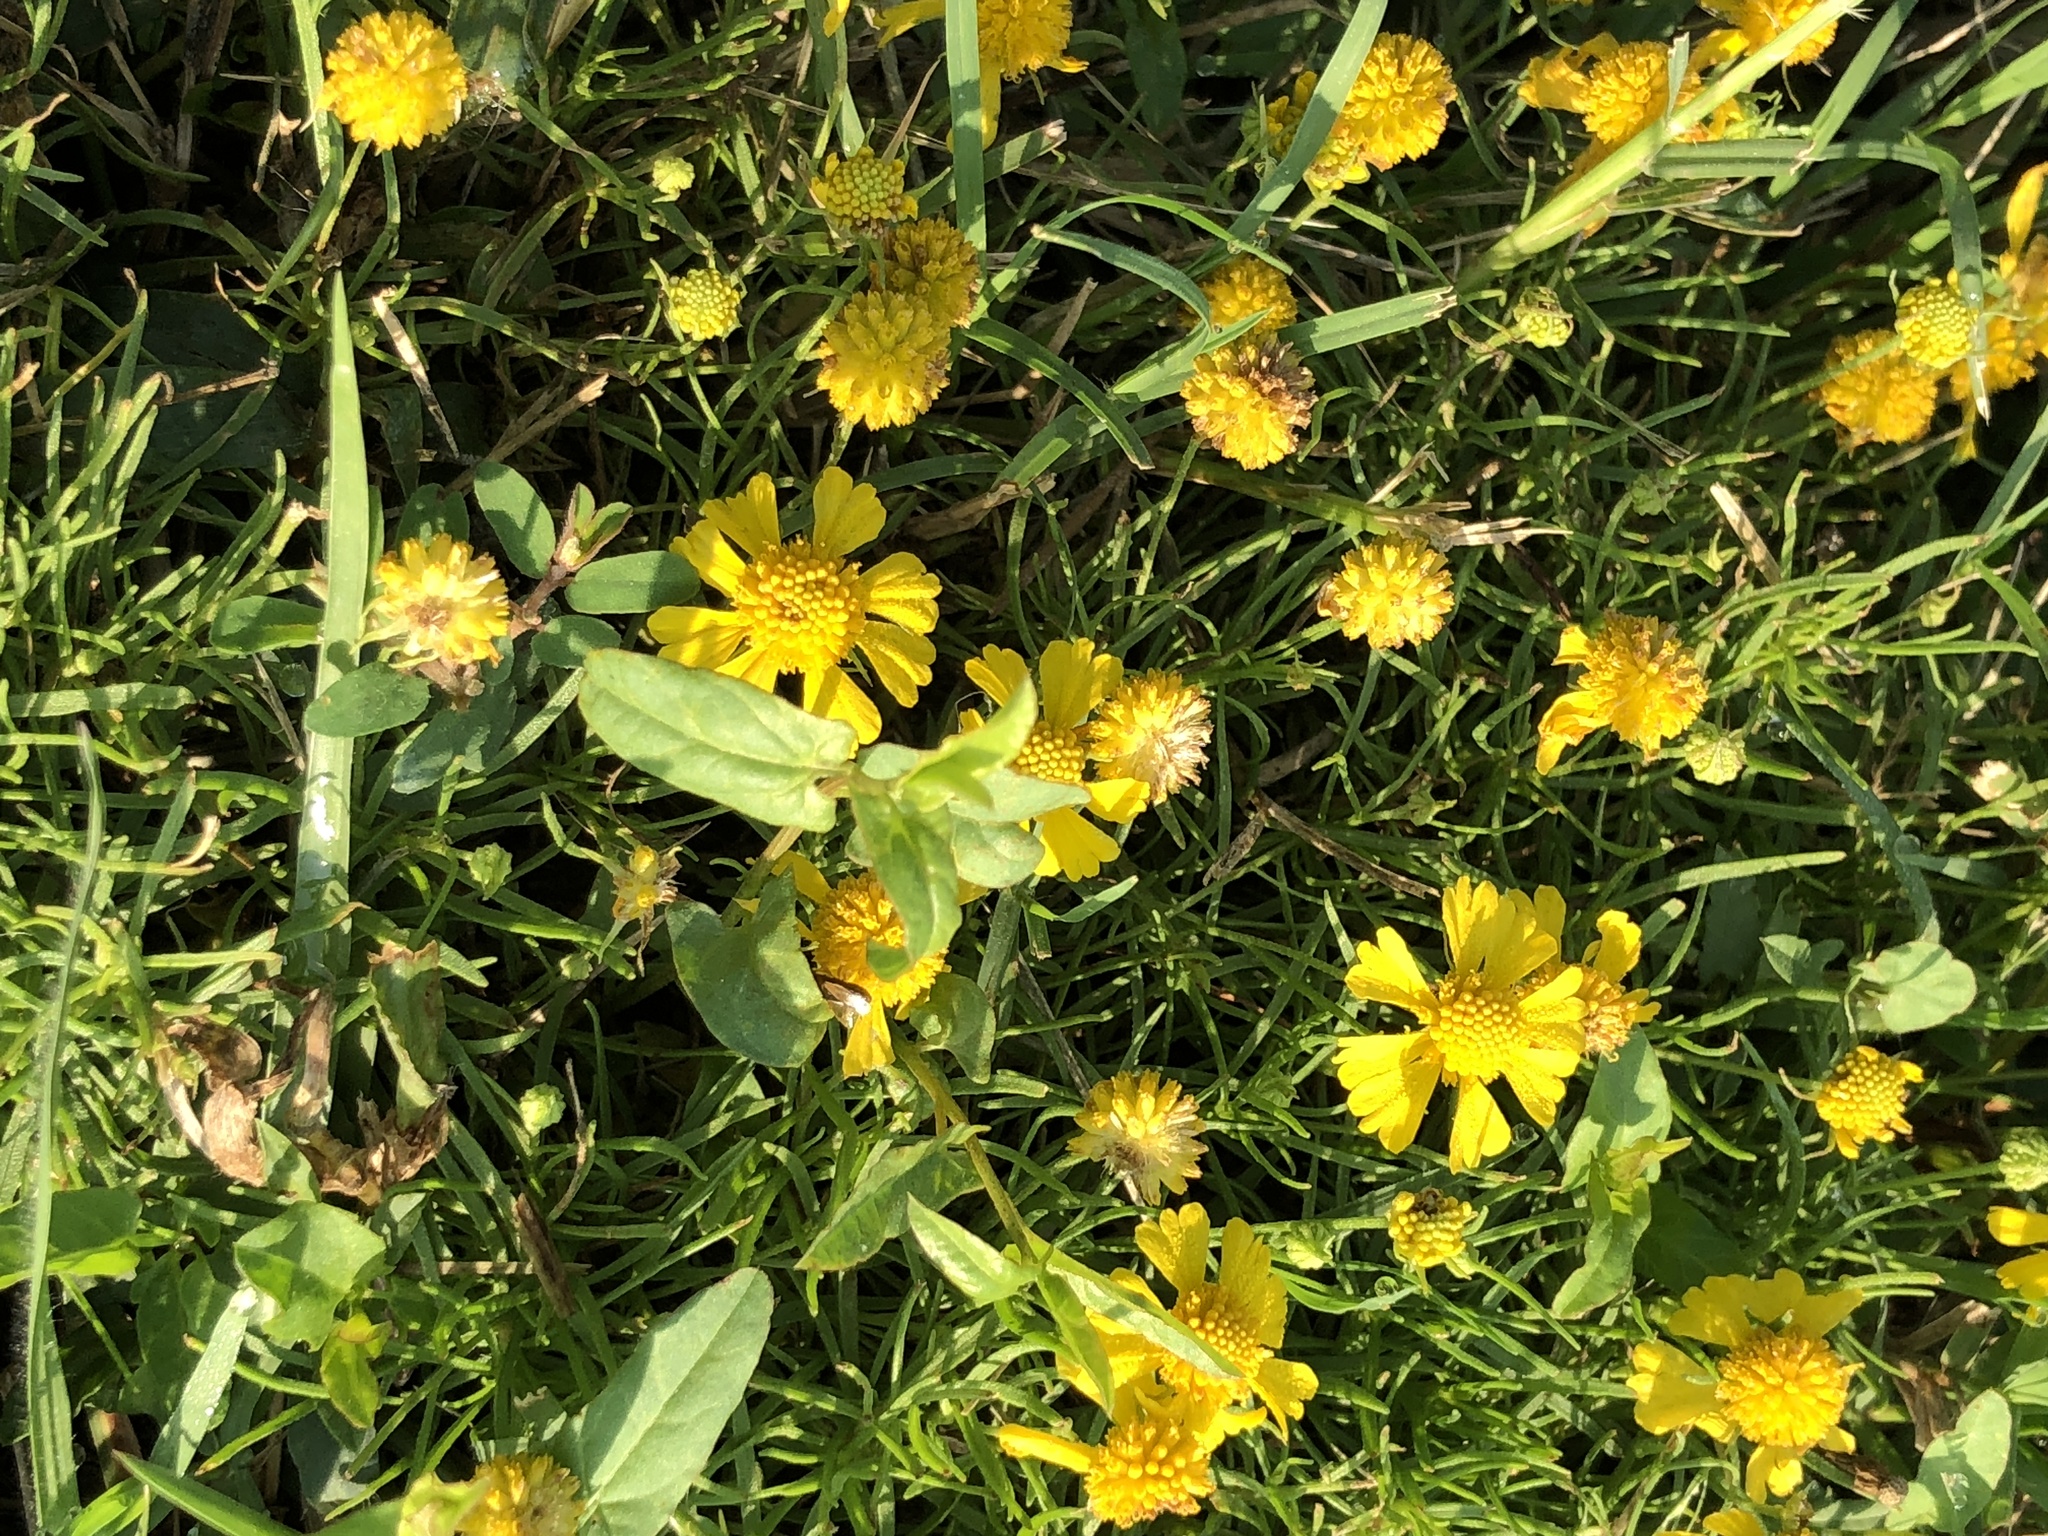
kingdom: Plantae
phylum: Tracheophyta
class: Magnoliopsida
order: Asterales
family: Asteraceae
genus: Helenium
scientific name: Helenium amarum
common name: Bitter sneezeweed
